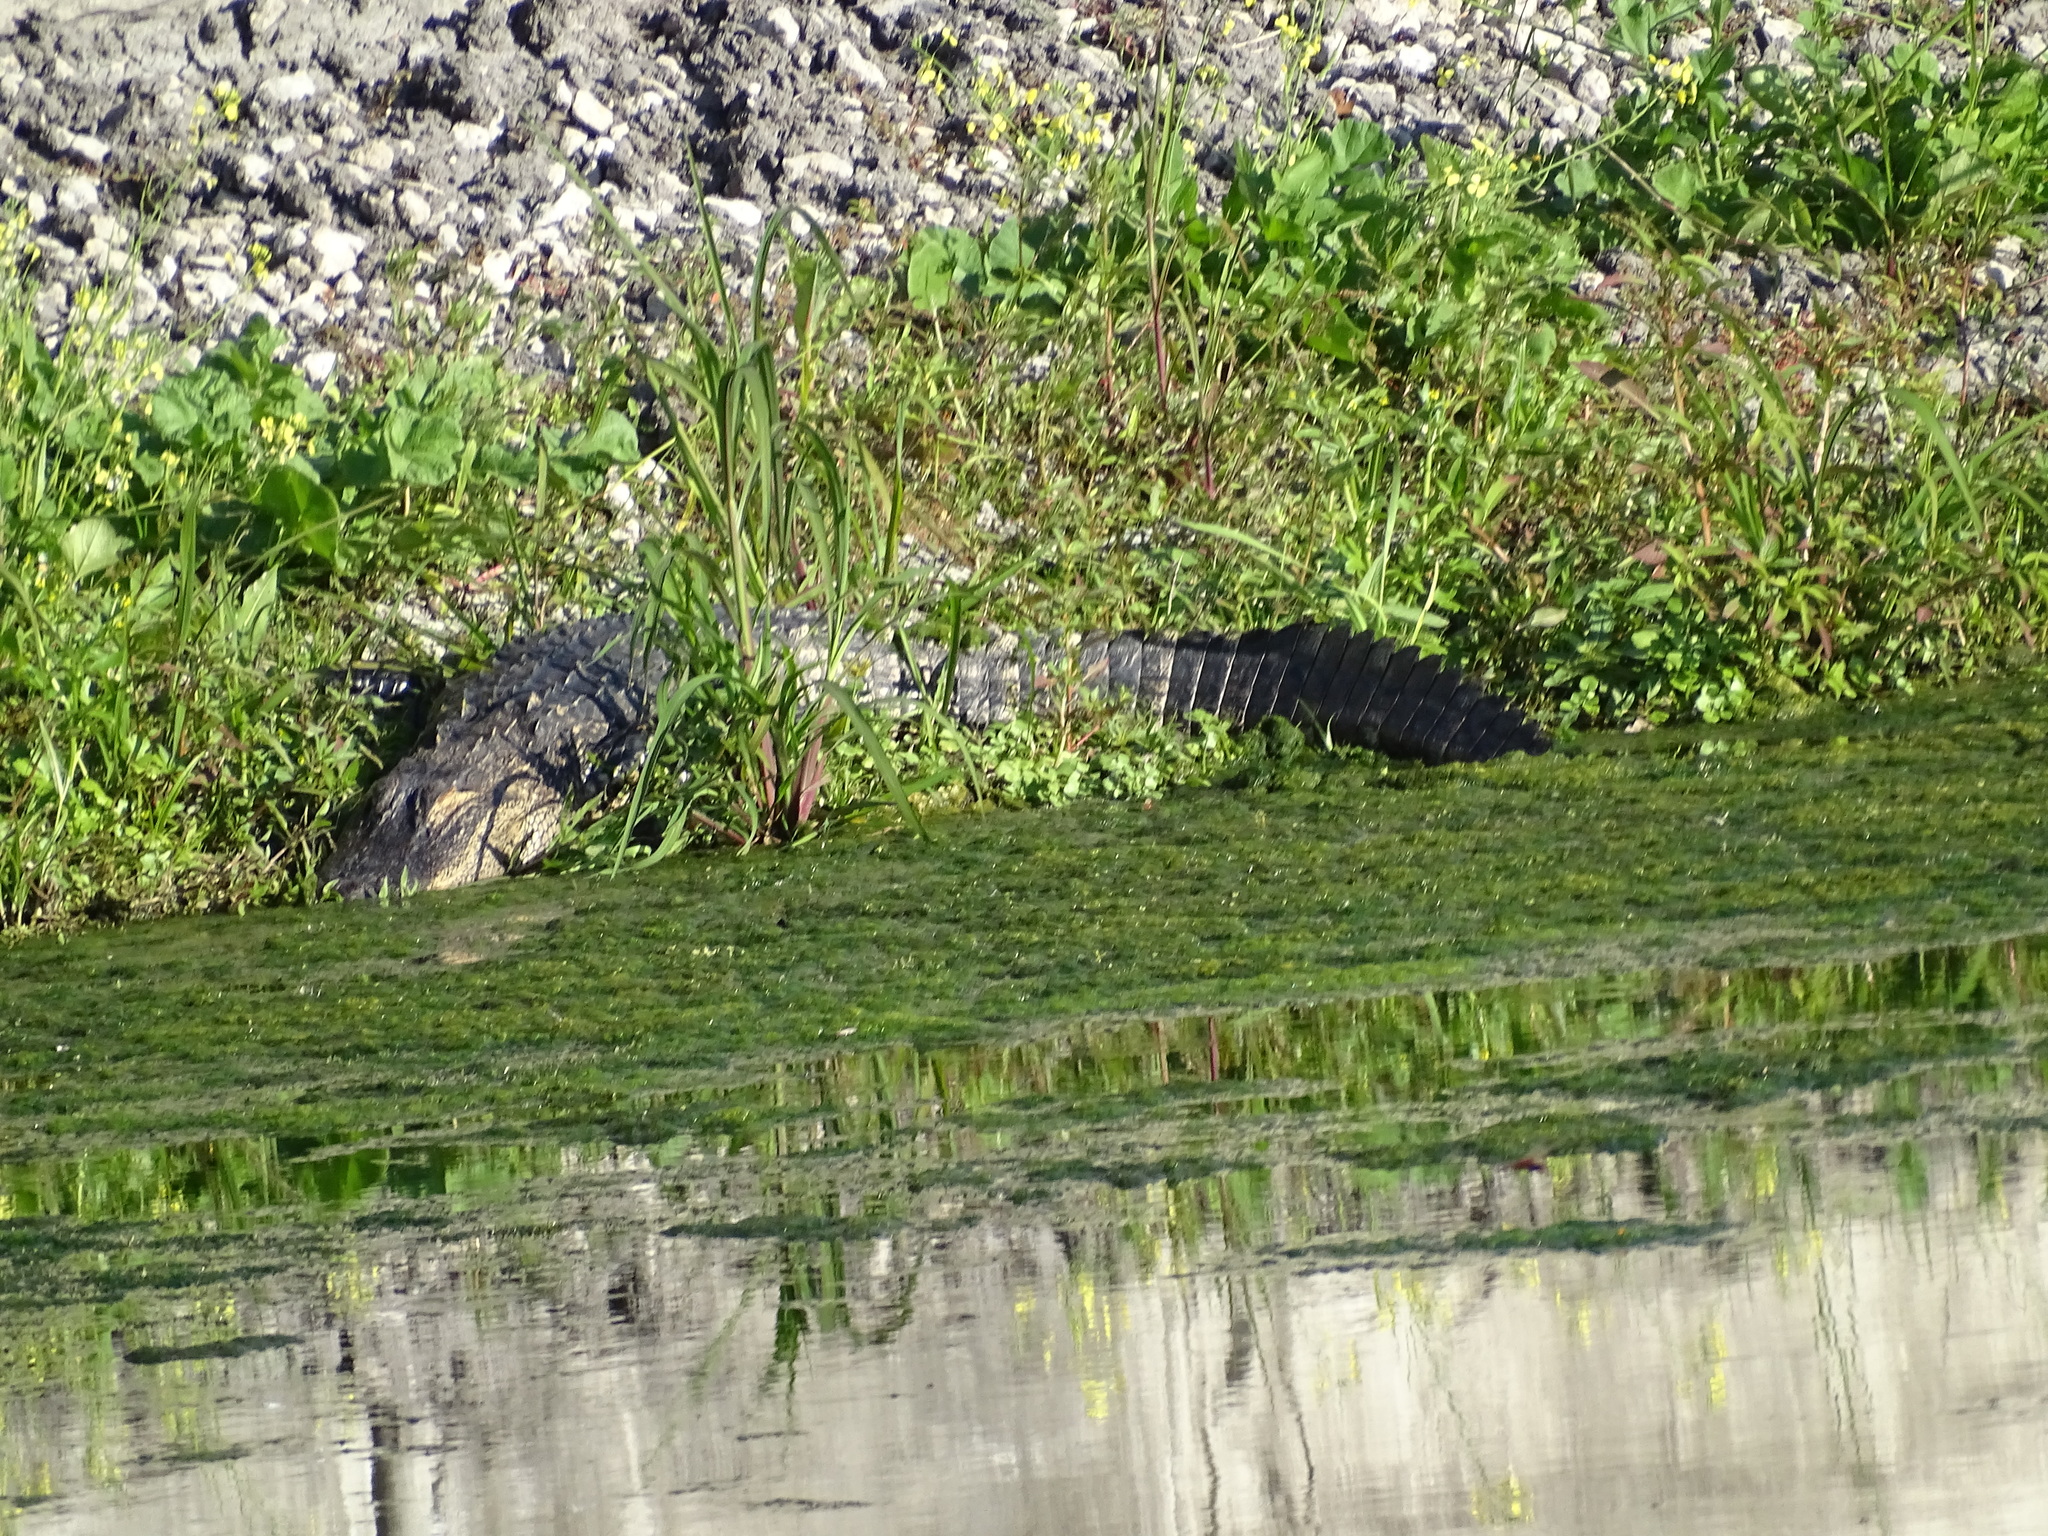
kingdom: Animalia
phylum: Chordata
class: Crocodylia
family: Alligatoridae
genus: Alligator
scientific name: Alligator mississippiensis
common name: American alligator
